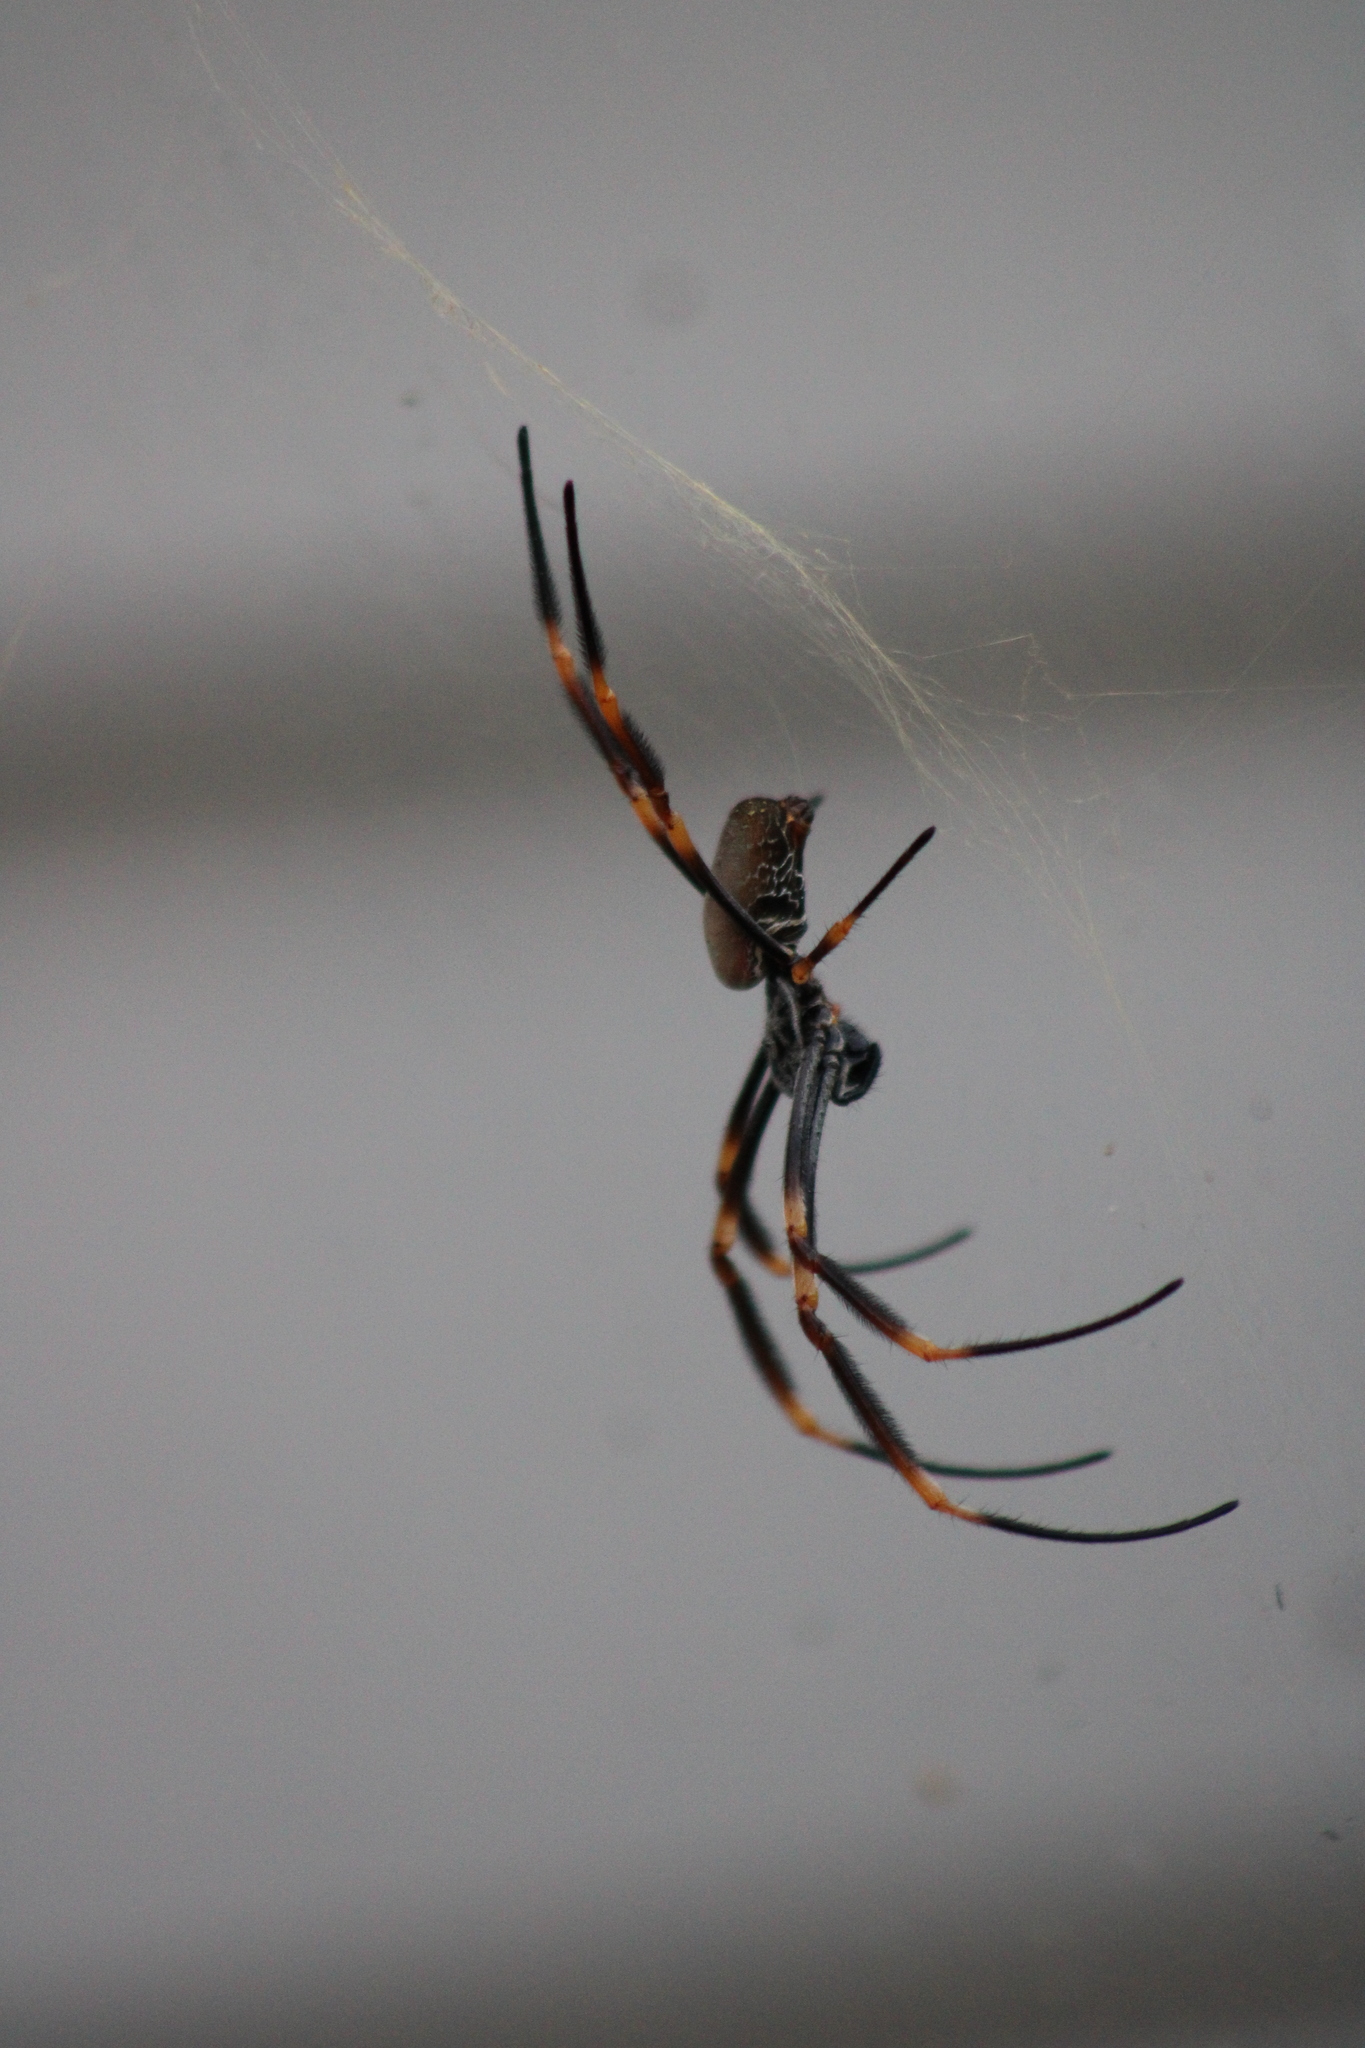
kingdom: Animalia
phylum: Arthropoda
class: Arachnida
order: Araneae
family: Araneidae
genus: Trichonephila
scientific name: Trichonephila plumipes
